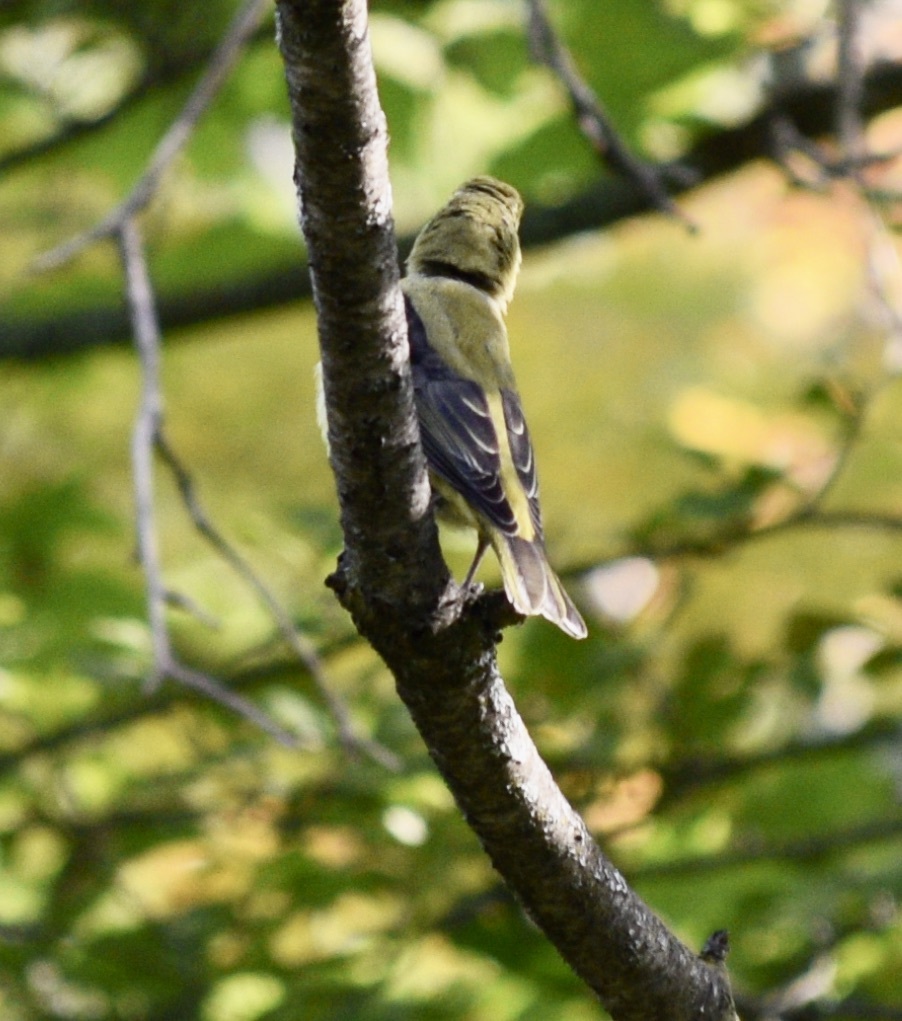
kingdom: Animalia
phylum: Chordata
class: Aves
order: Passeriformes
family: Cardinalidae
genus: Piranga
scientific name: Piranga olivacea
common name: Scarlet tanager
